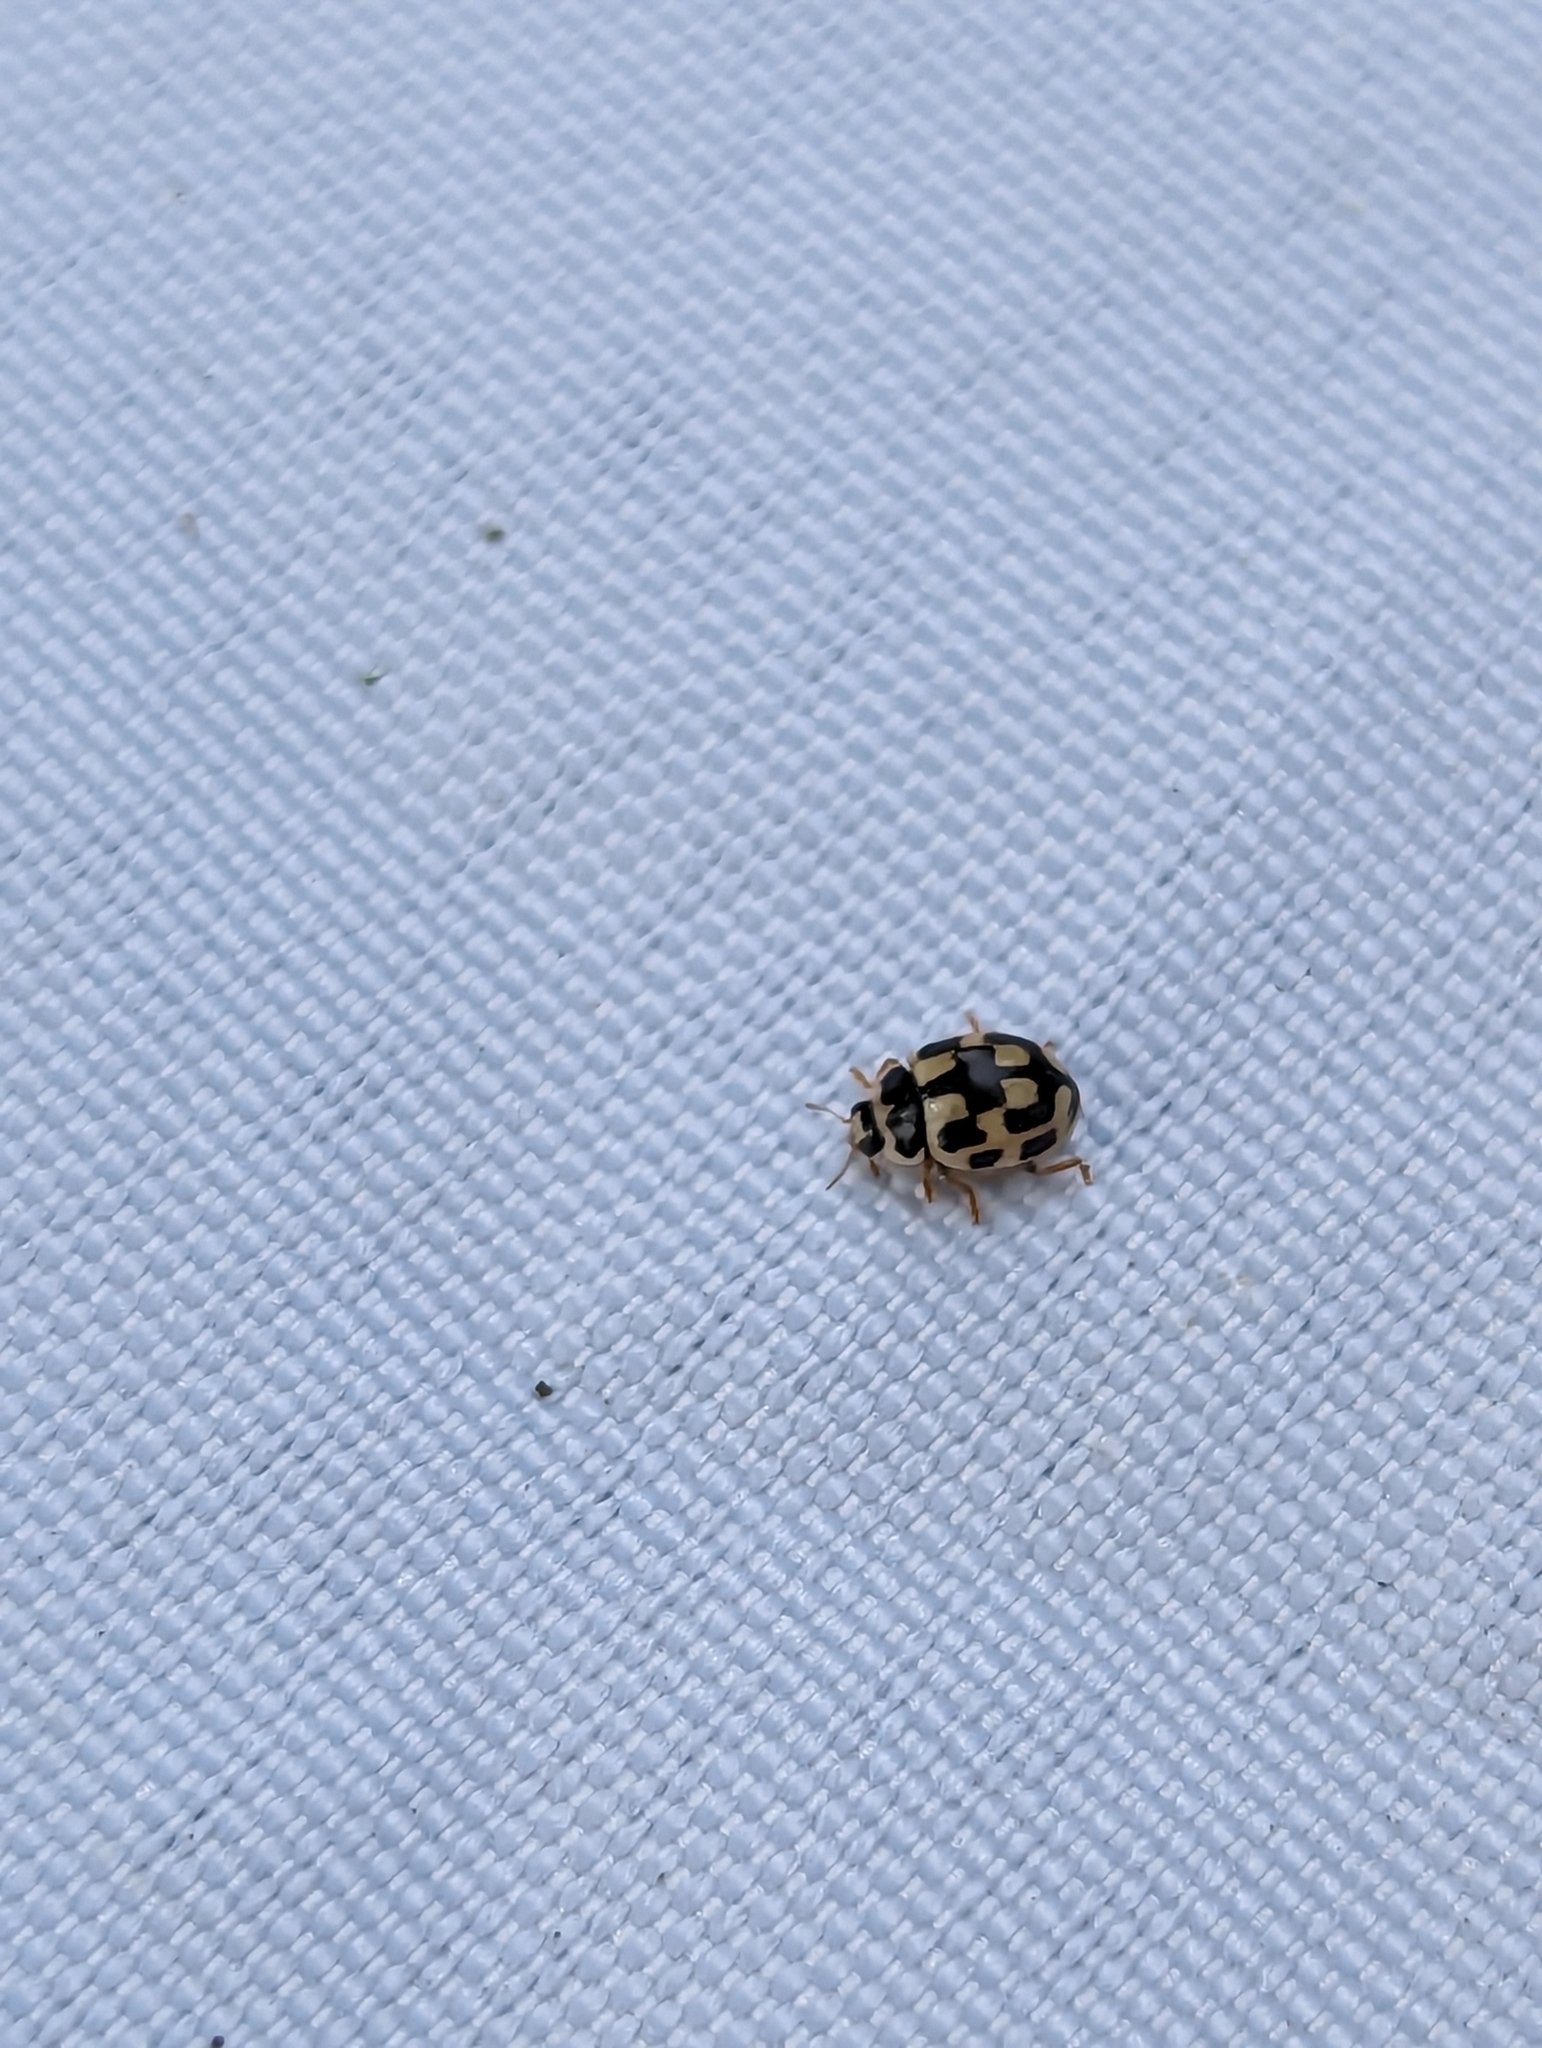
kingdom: Animalia
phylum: Arthropoda
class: Insecta
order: Coleoptera
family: Coccinellidae
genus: Propylaea
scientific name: Propylaea quatuordecimpunctata
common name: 14-spotted ladybird beetle
